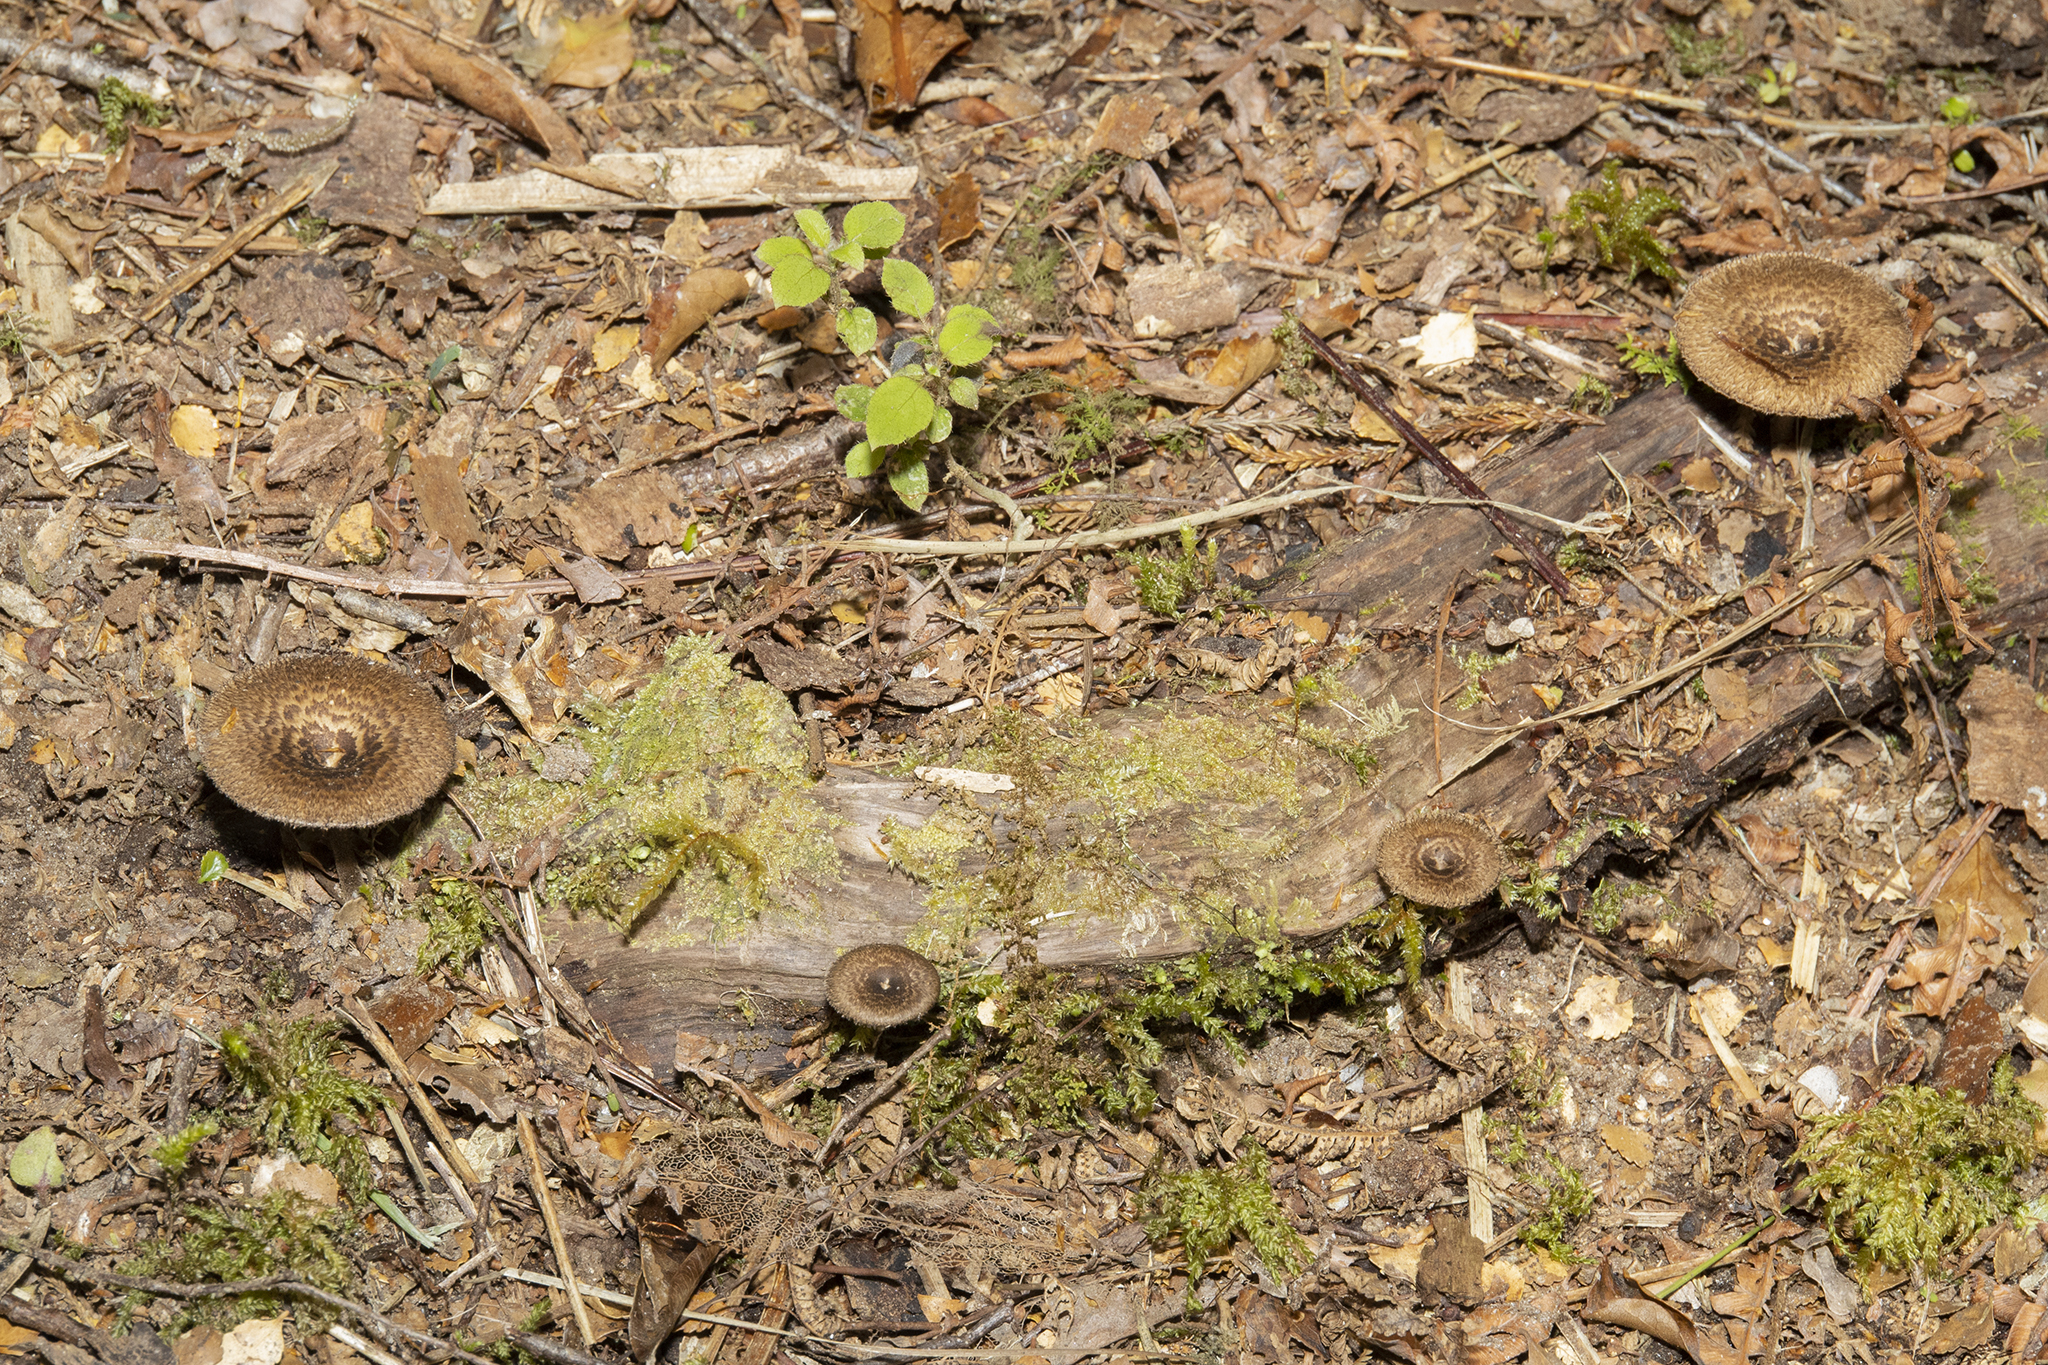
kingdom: Fungi
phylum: Basidiomycota
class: Agaricomycetes
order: Polyporales
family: Polyporaceae
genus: Lentinus
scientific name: Lentinus arcularius
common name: Spring polypore
